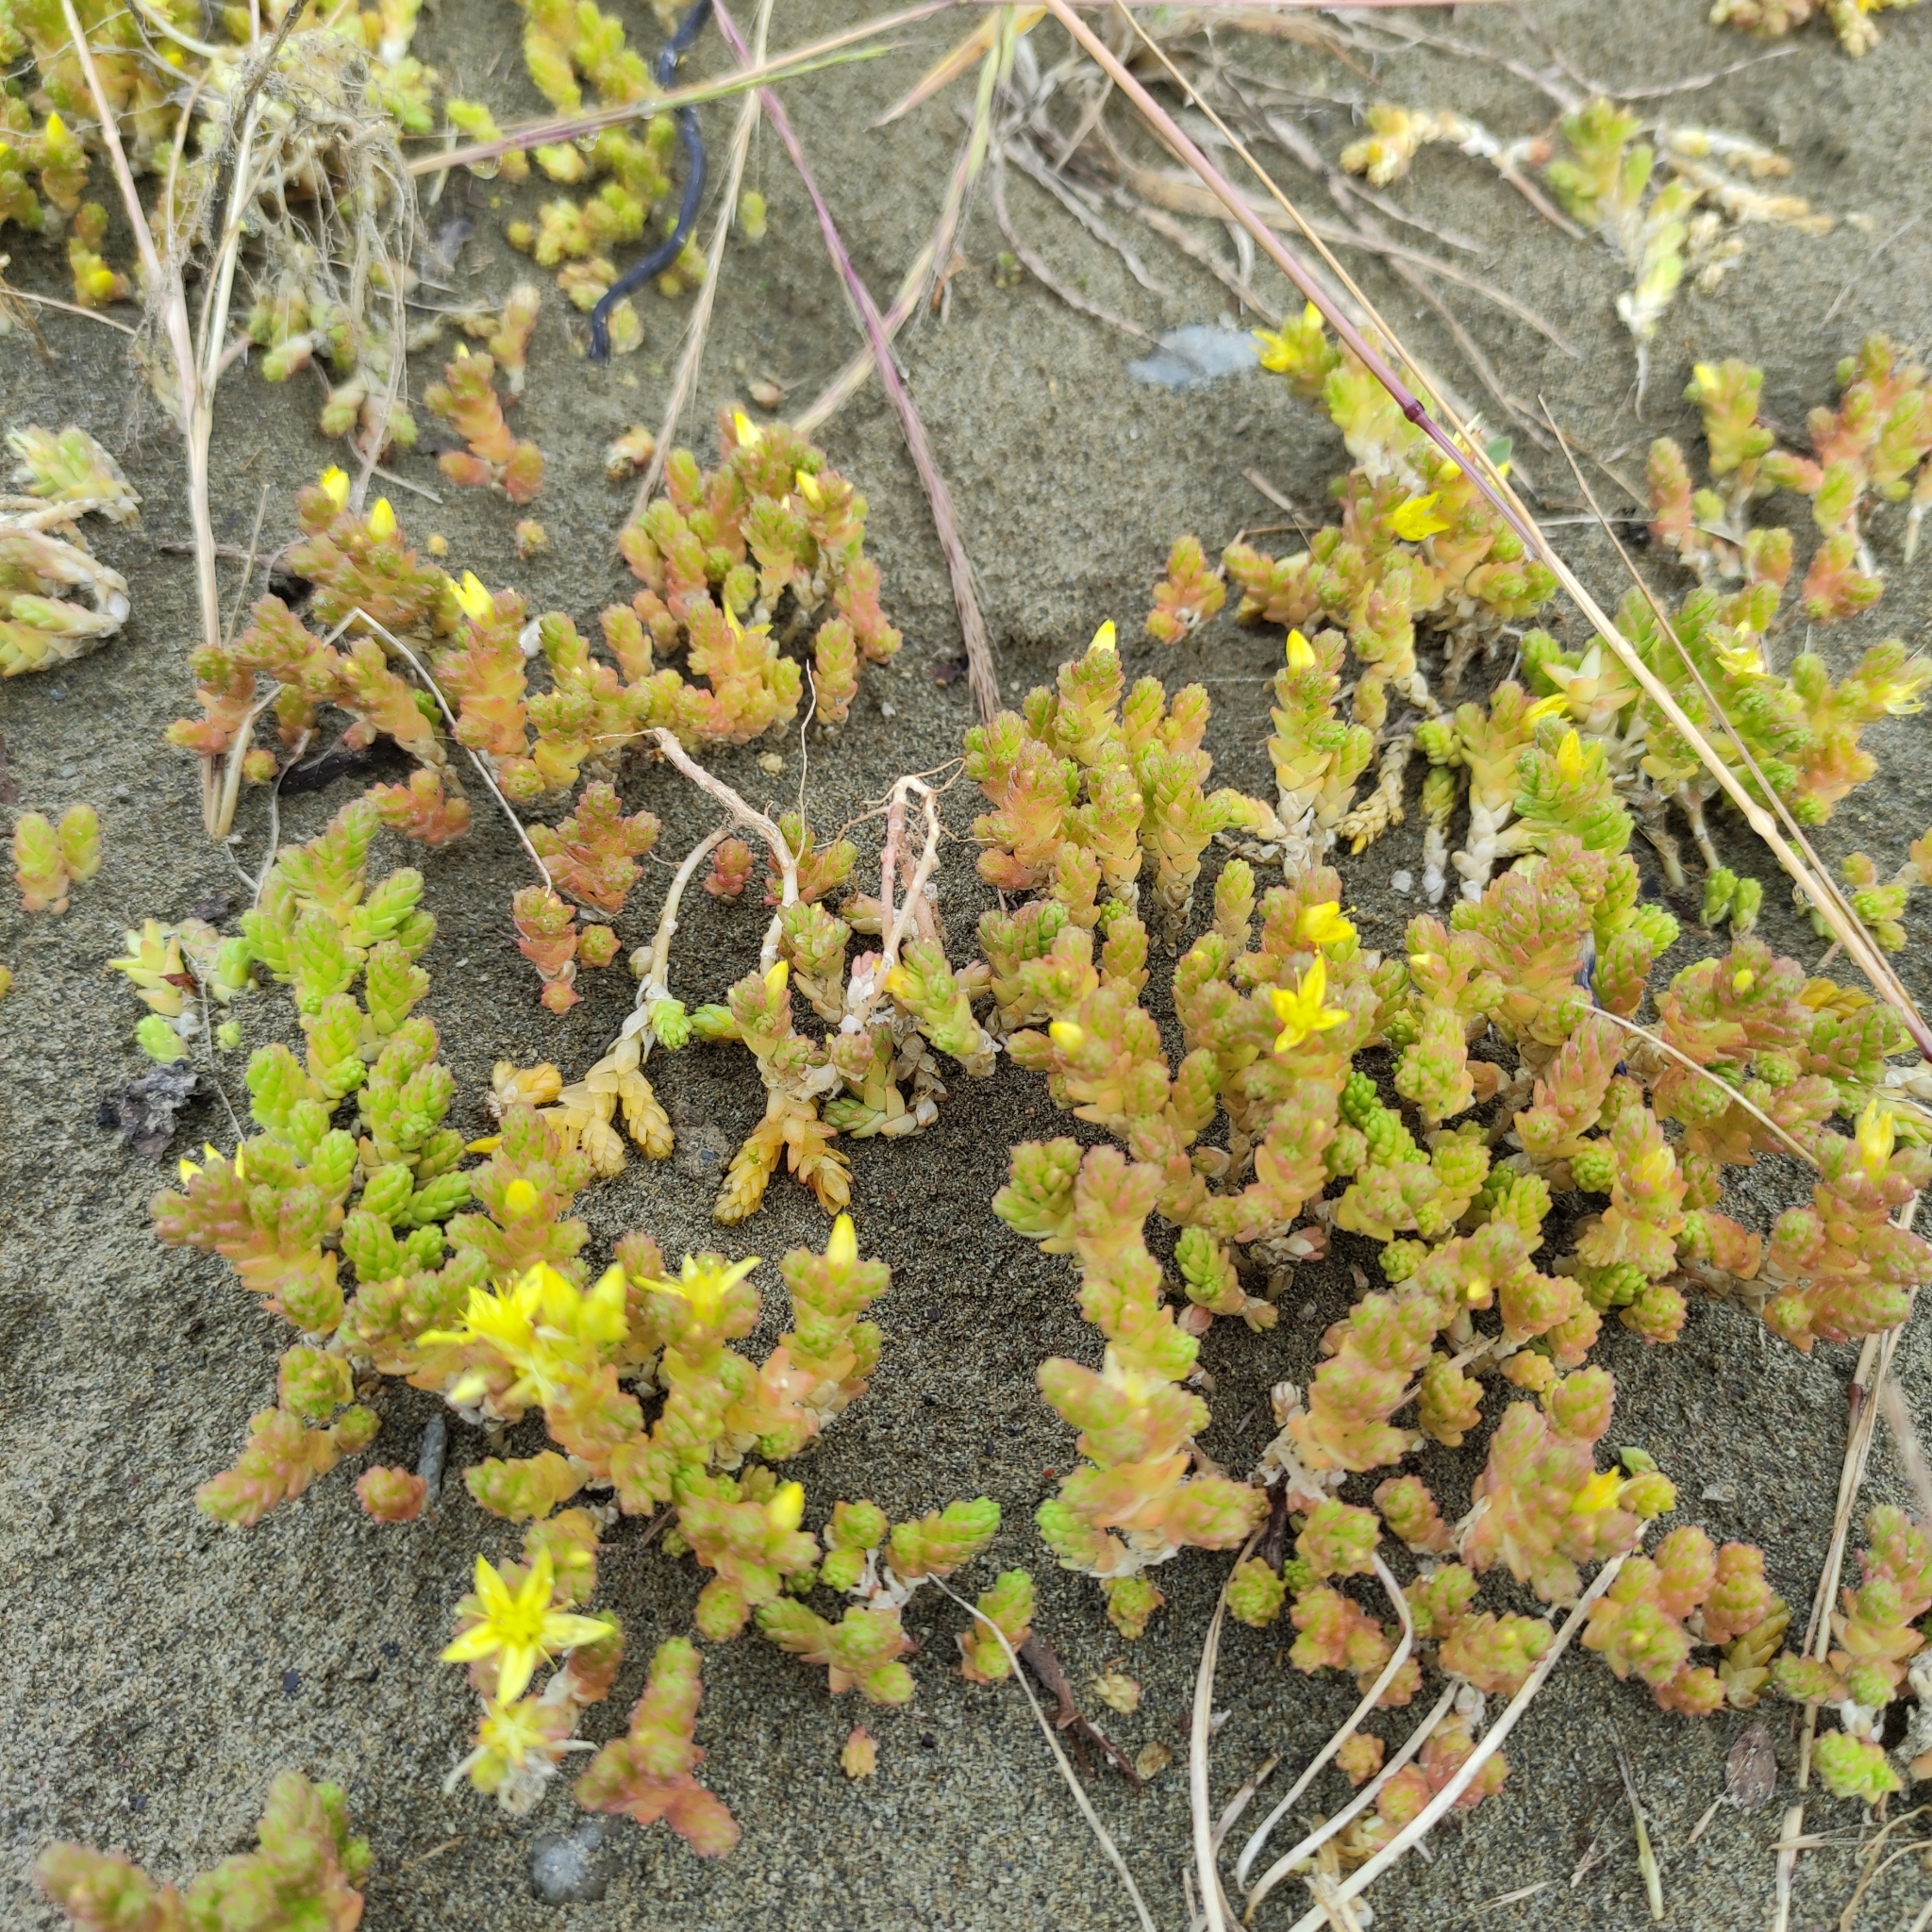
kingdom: Plantae
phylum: Tracheophyta
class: Magnoliopsida
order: Saxifragales
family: Crassulaceae
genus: Sedum
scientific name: Sedum acre
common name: Biting stonecrop
